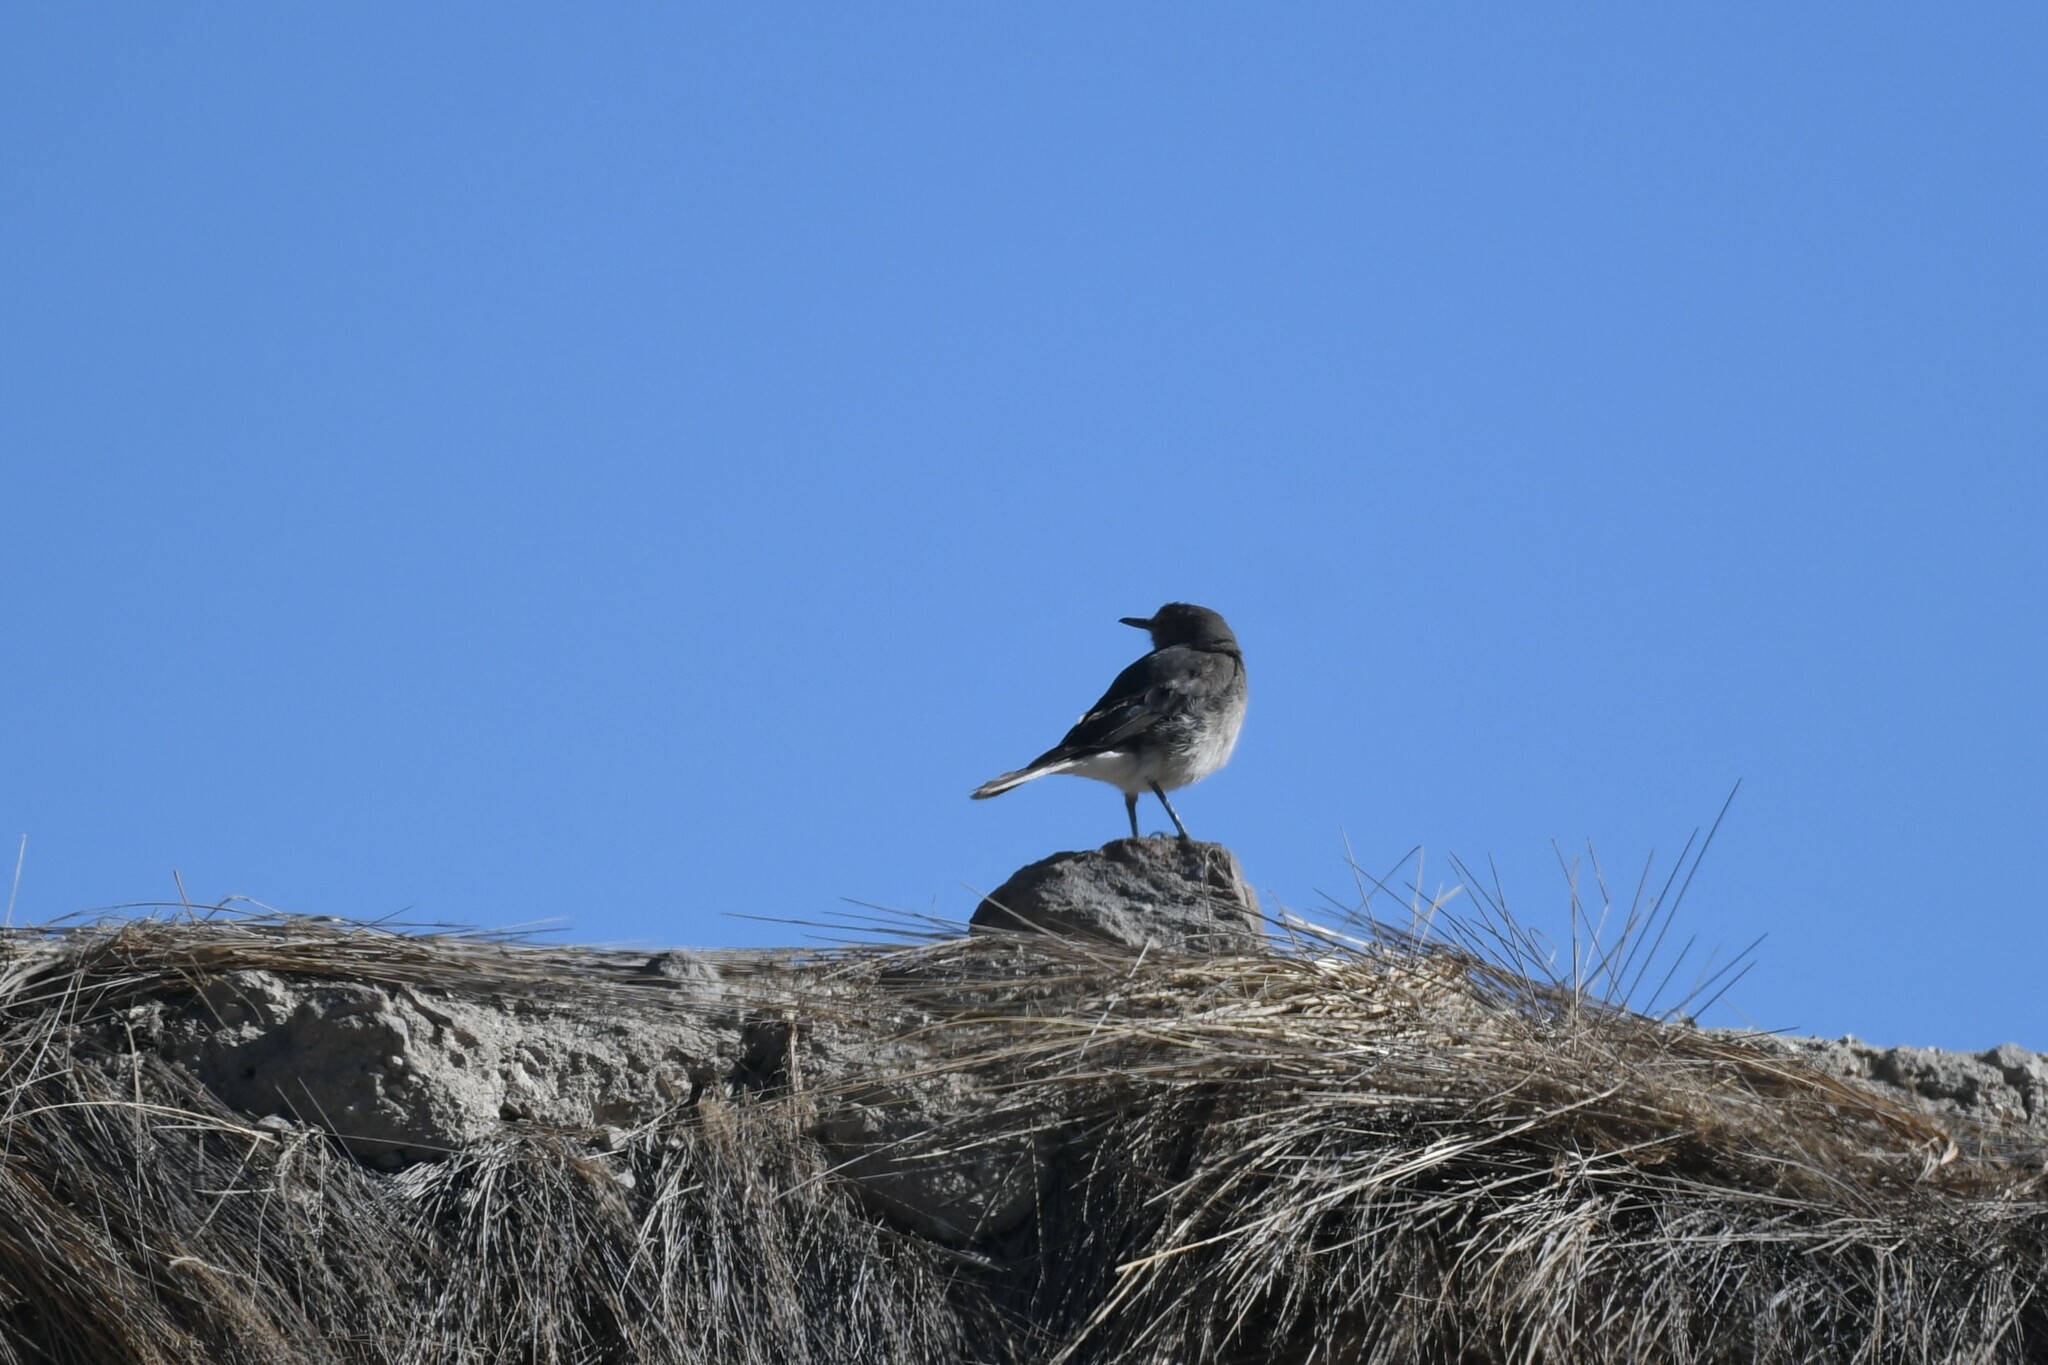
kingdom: Animalia
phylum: Chordata
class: Aves
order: Passeriformes
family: Tyrannidae
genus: Agriornis
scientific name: Agriornis montanus
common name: Black-billed shrike-tyrant
